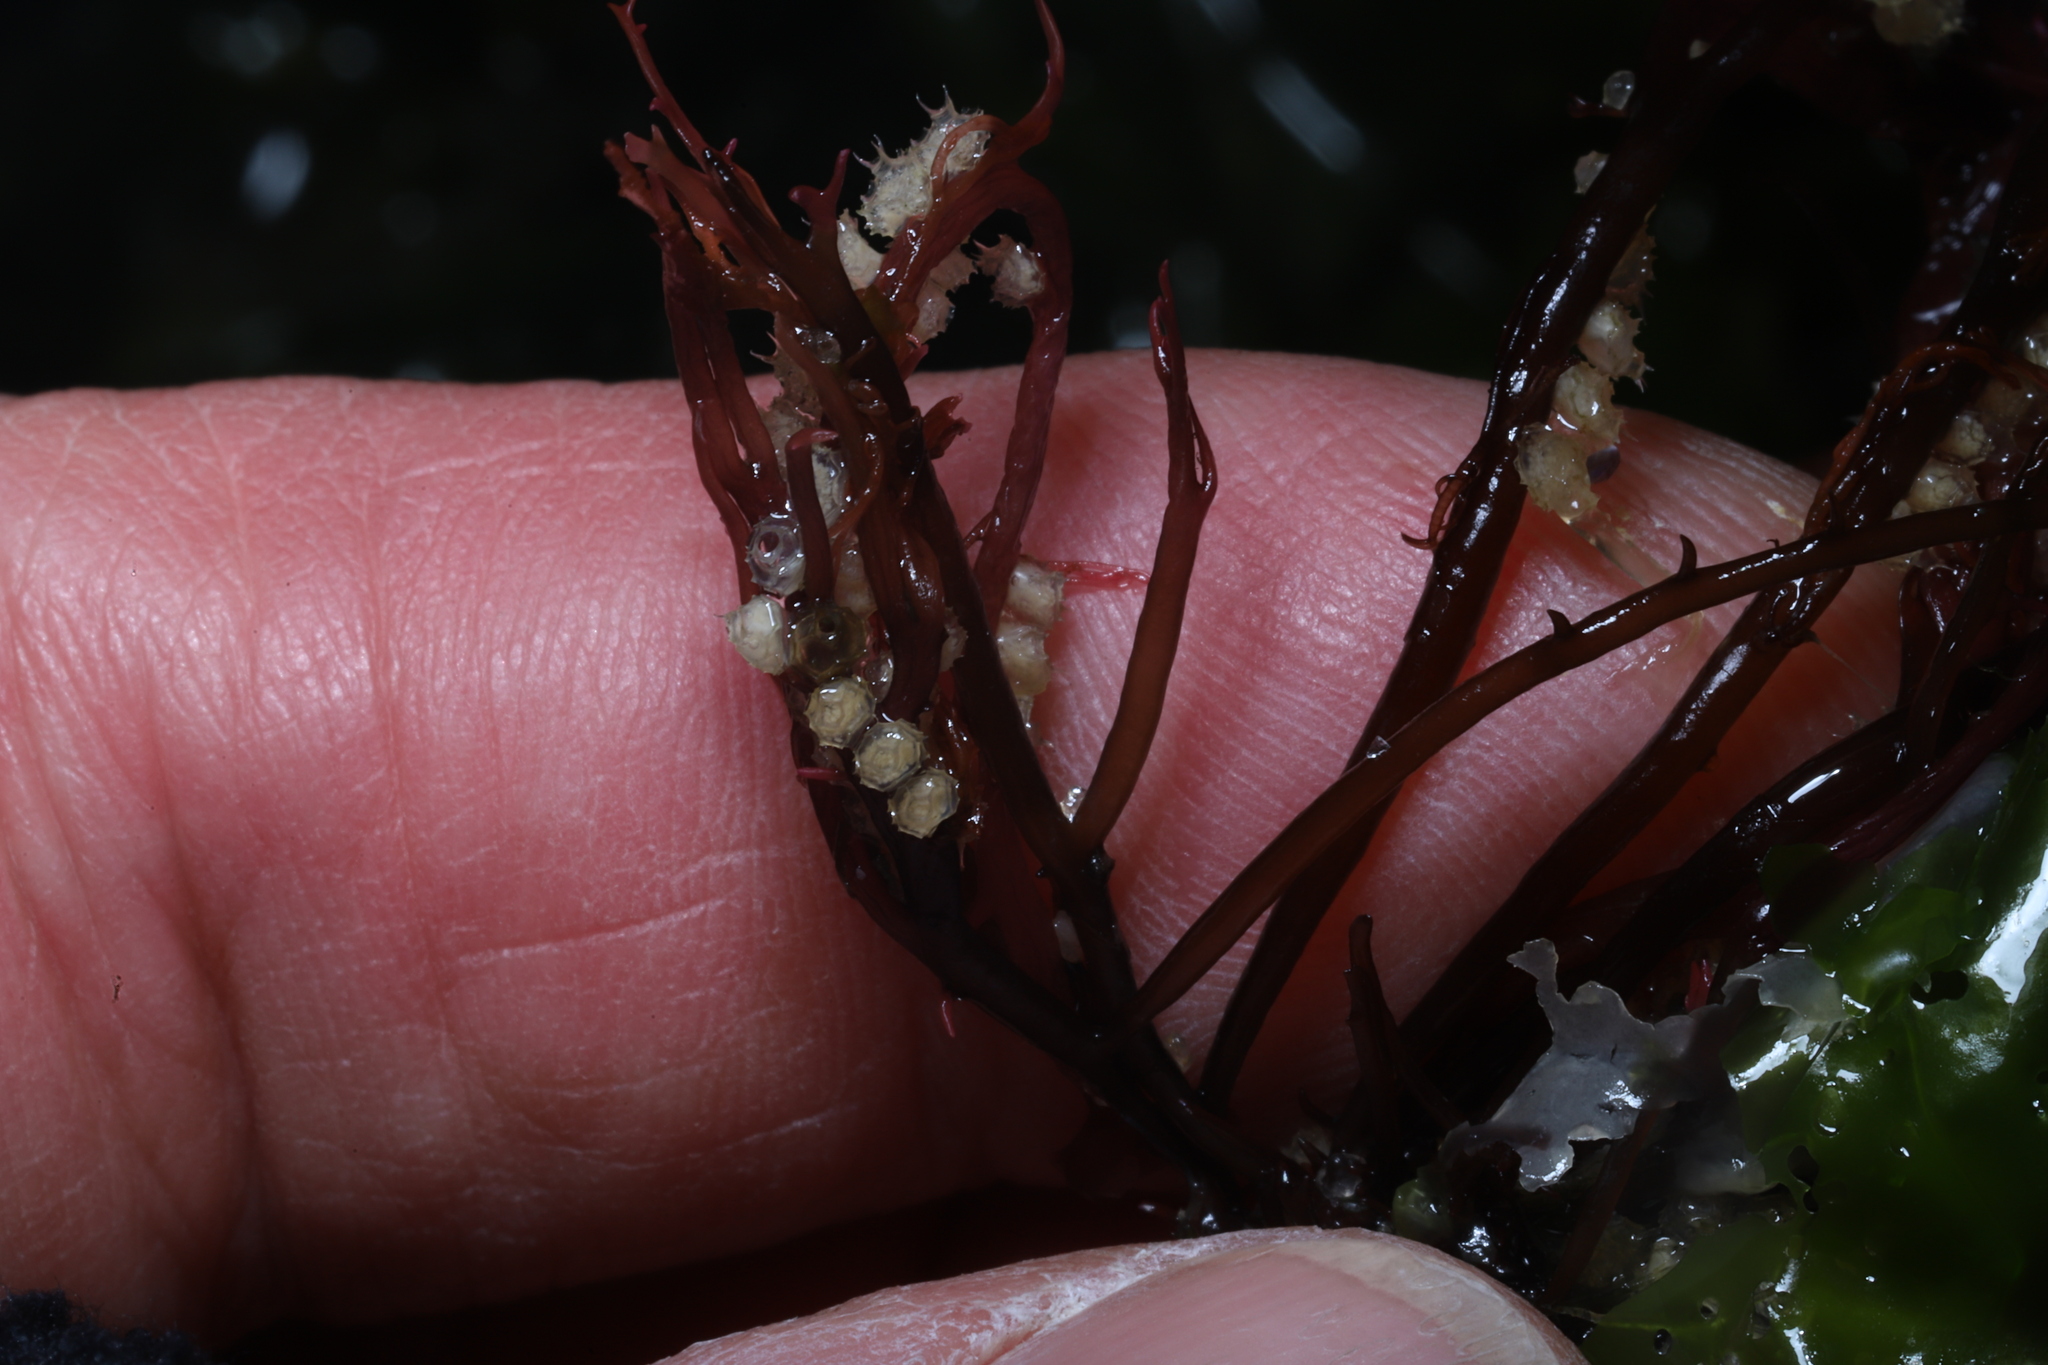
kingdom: Animalia
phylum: Mollusca
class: Gastropoda
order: Neogastropoda
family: Nassariidae
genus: Ilyanassa
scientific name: Ilyanassa obsoleta
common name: Eastern mudsnail
